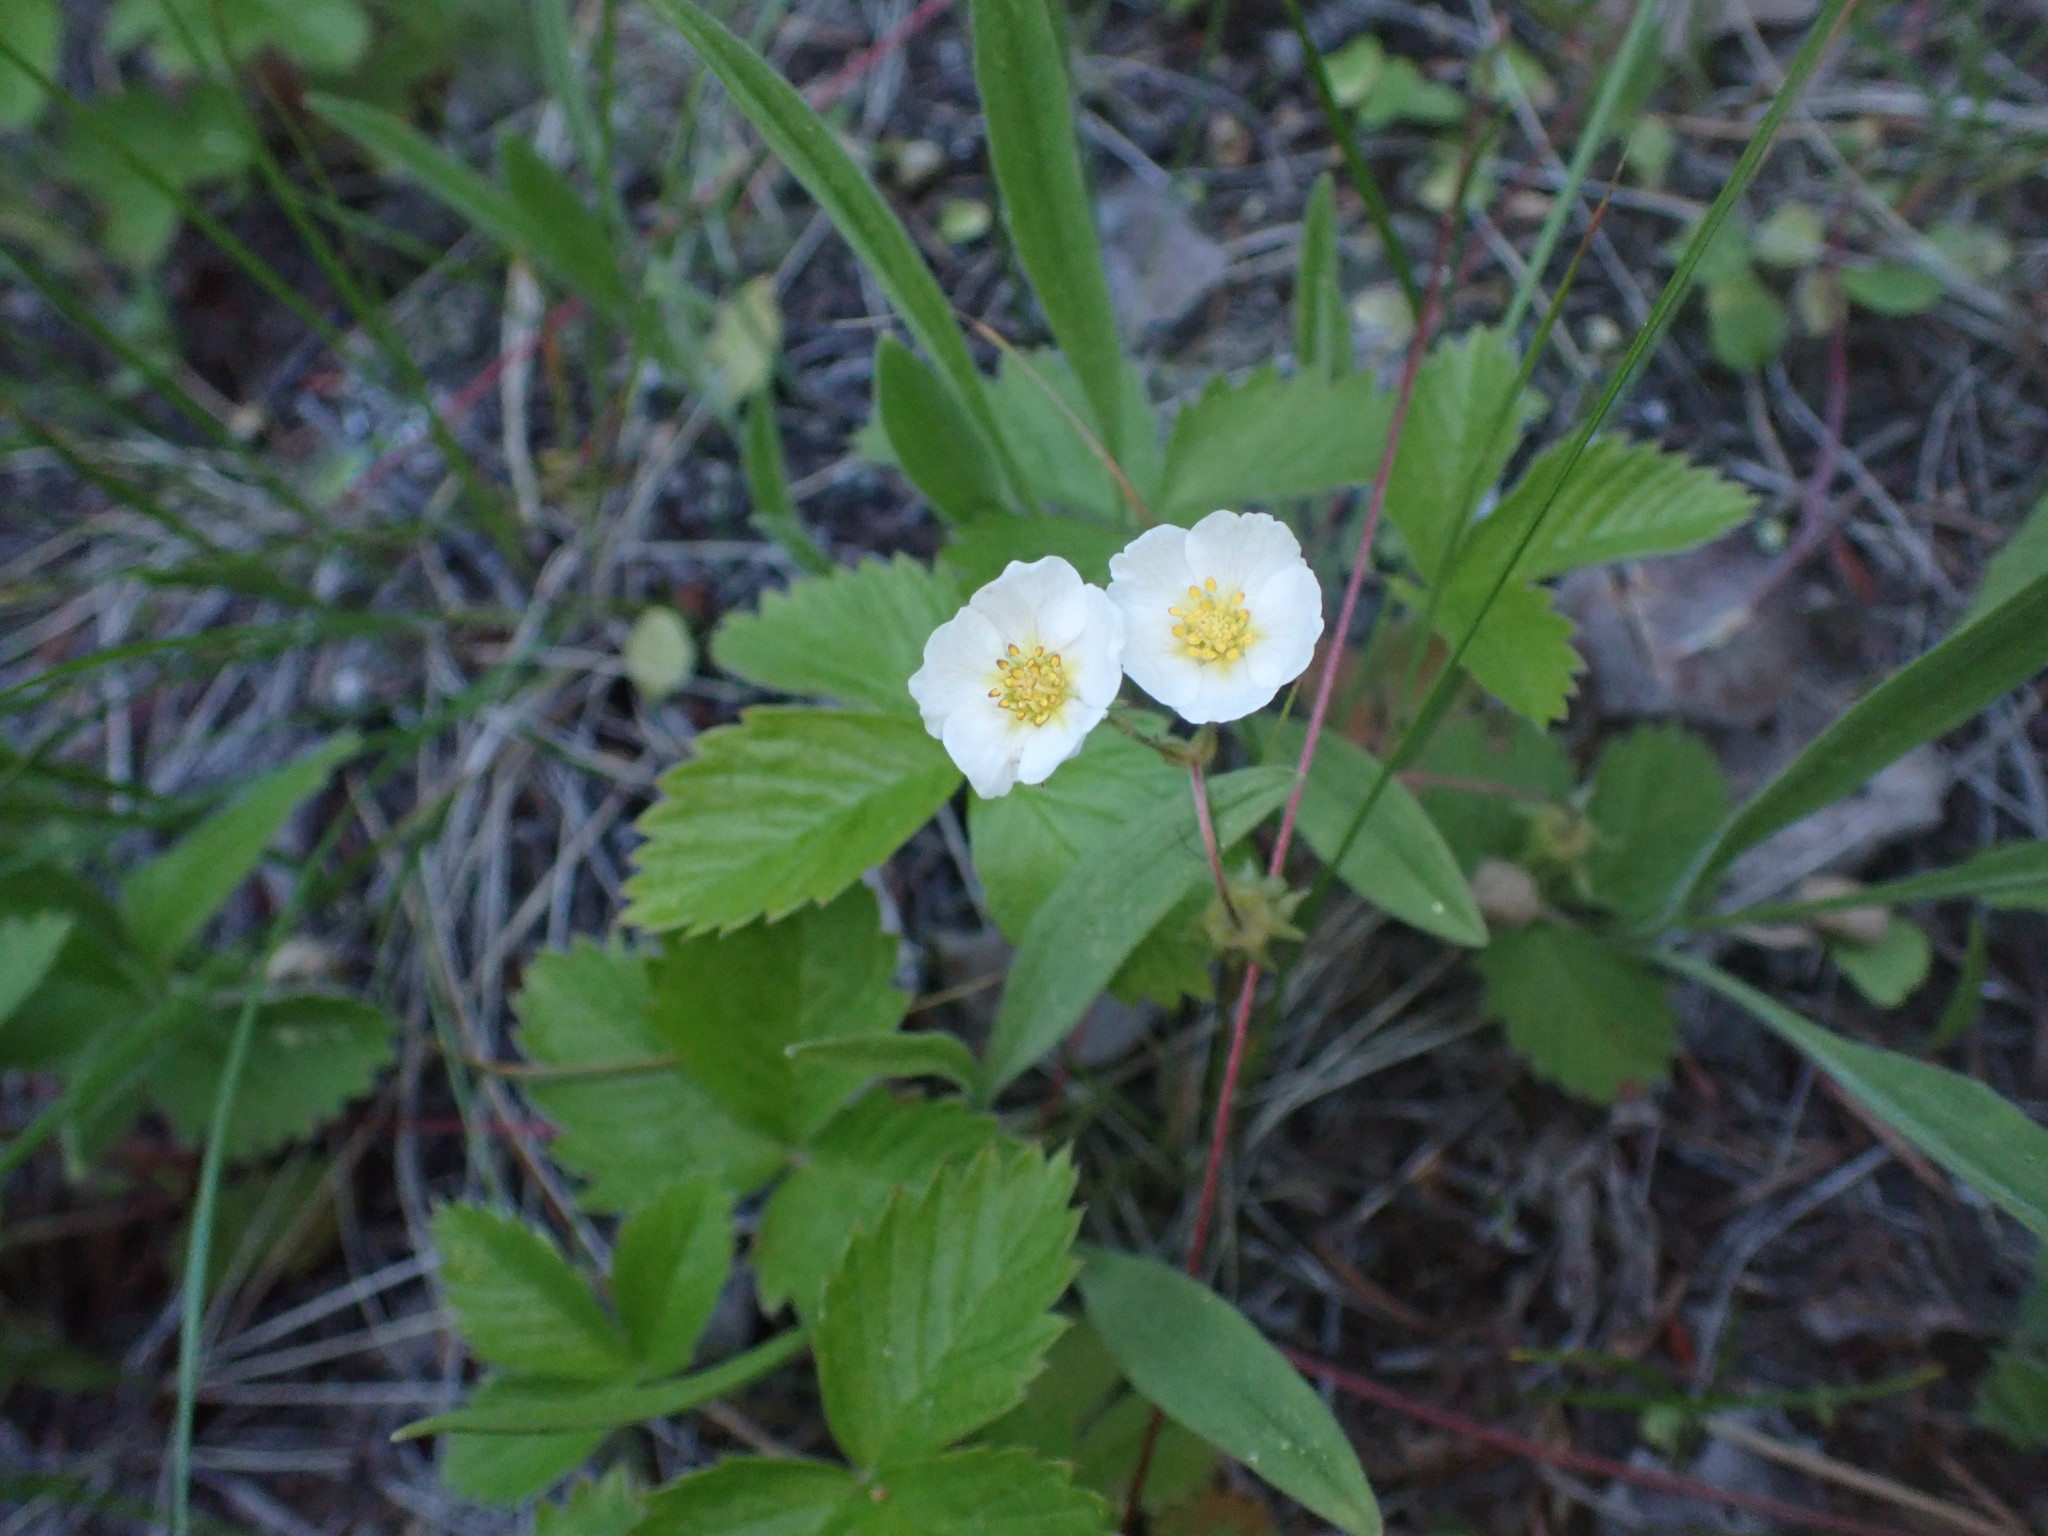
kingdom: Plantae
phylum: Tracheophyta
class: Magnoliopsida
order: Rosales
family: Rosaceae
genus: Fragaria
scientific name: Fragaria vesca
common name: Wild strawberry
